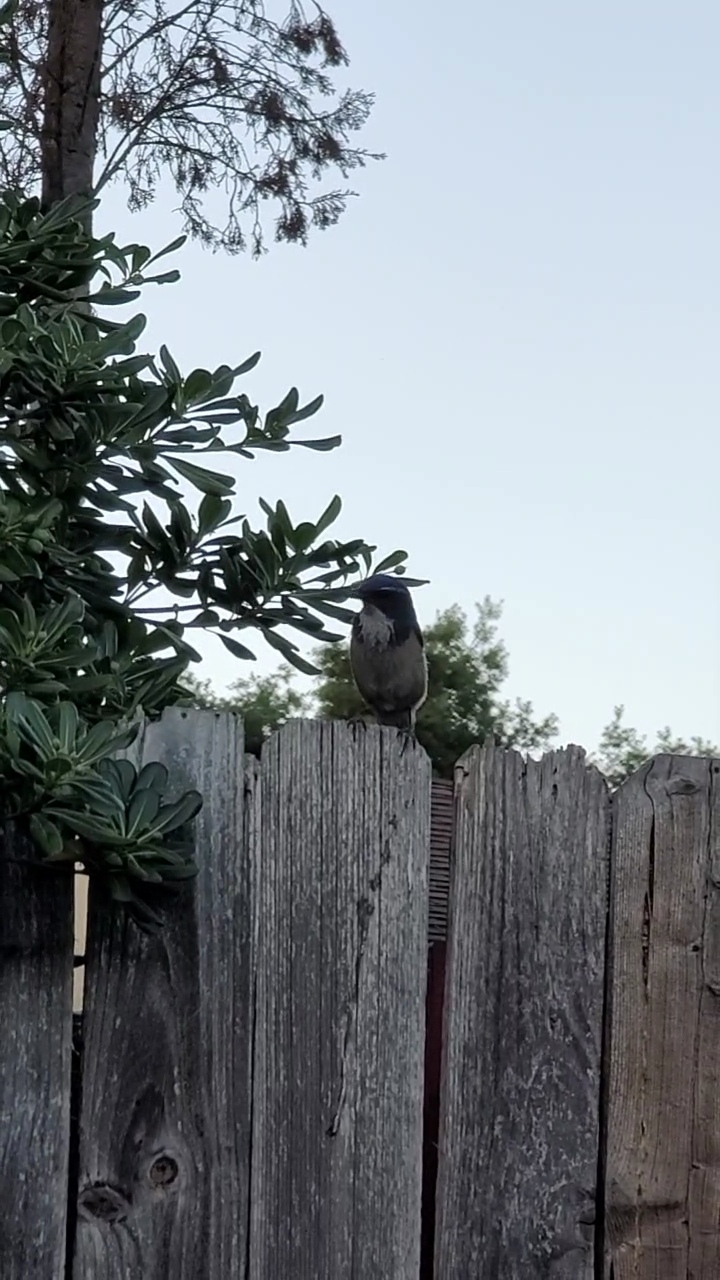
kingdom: Animalia
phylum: Chordata
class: Aves
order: Passeriformes
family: Corvidae
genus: Aphelocoma
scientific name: Aphelocoma californica
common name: California scrub-jay
